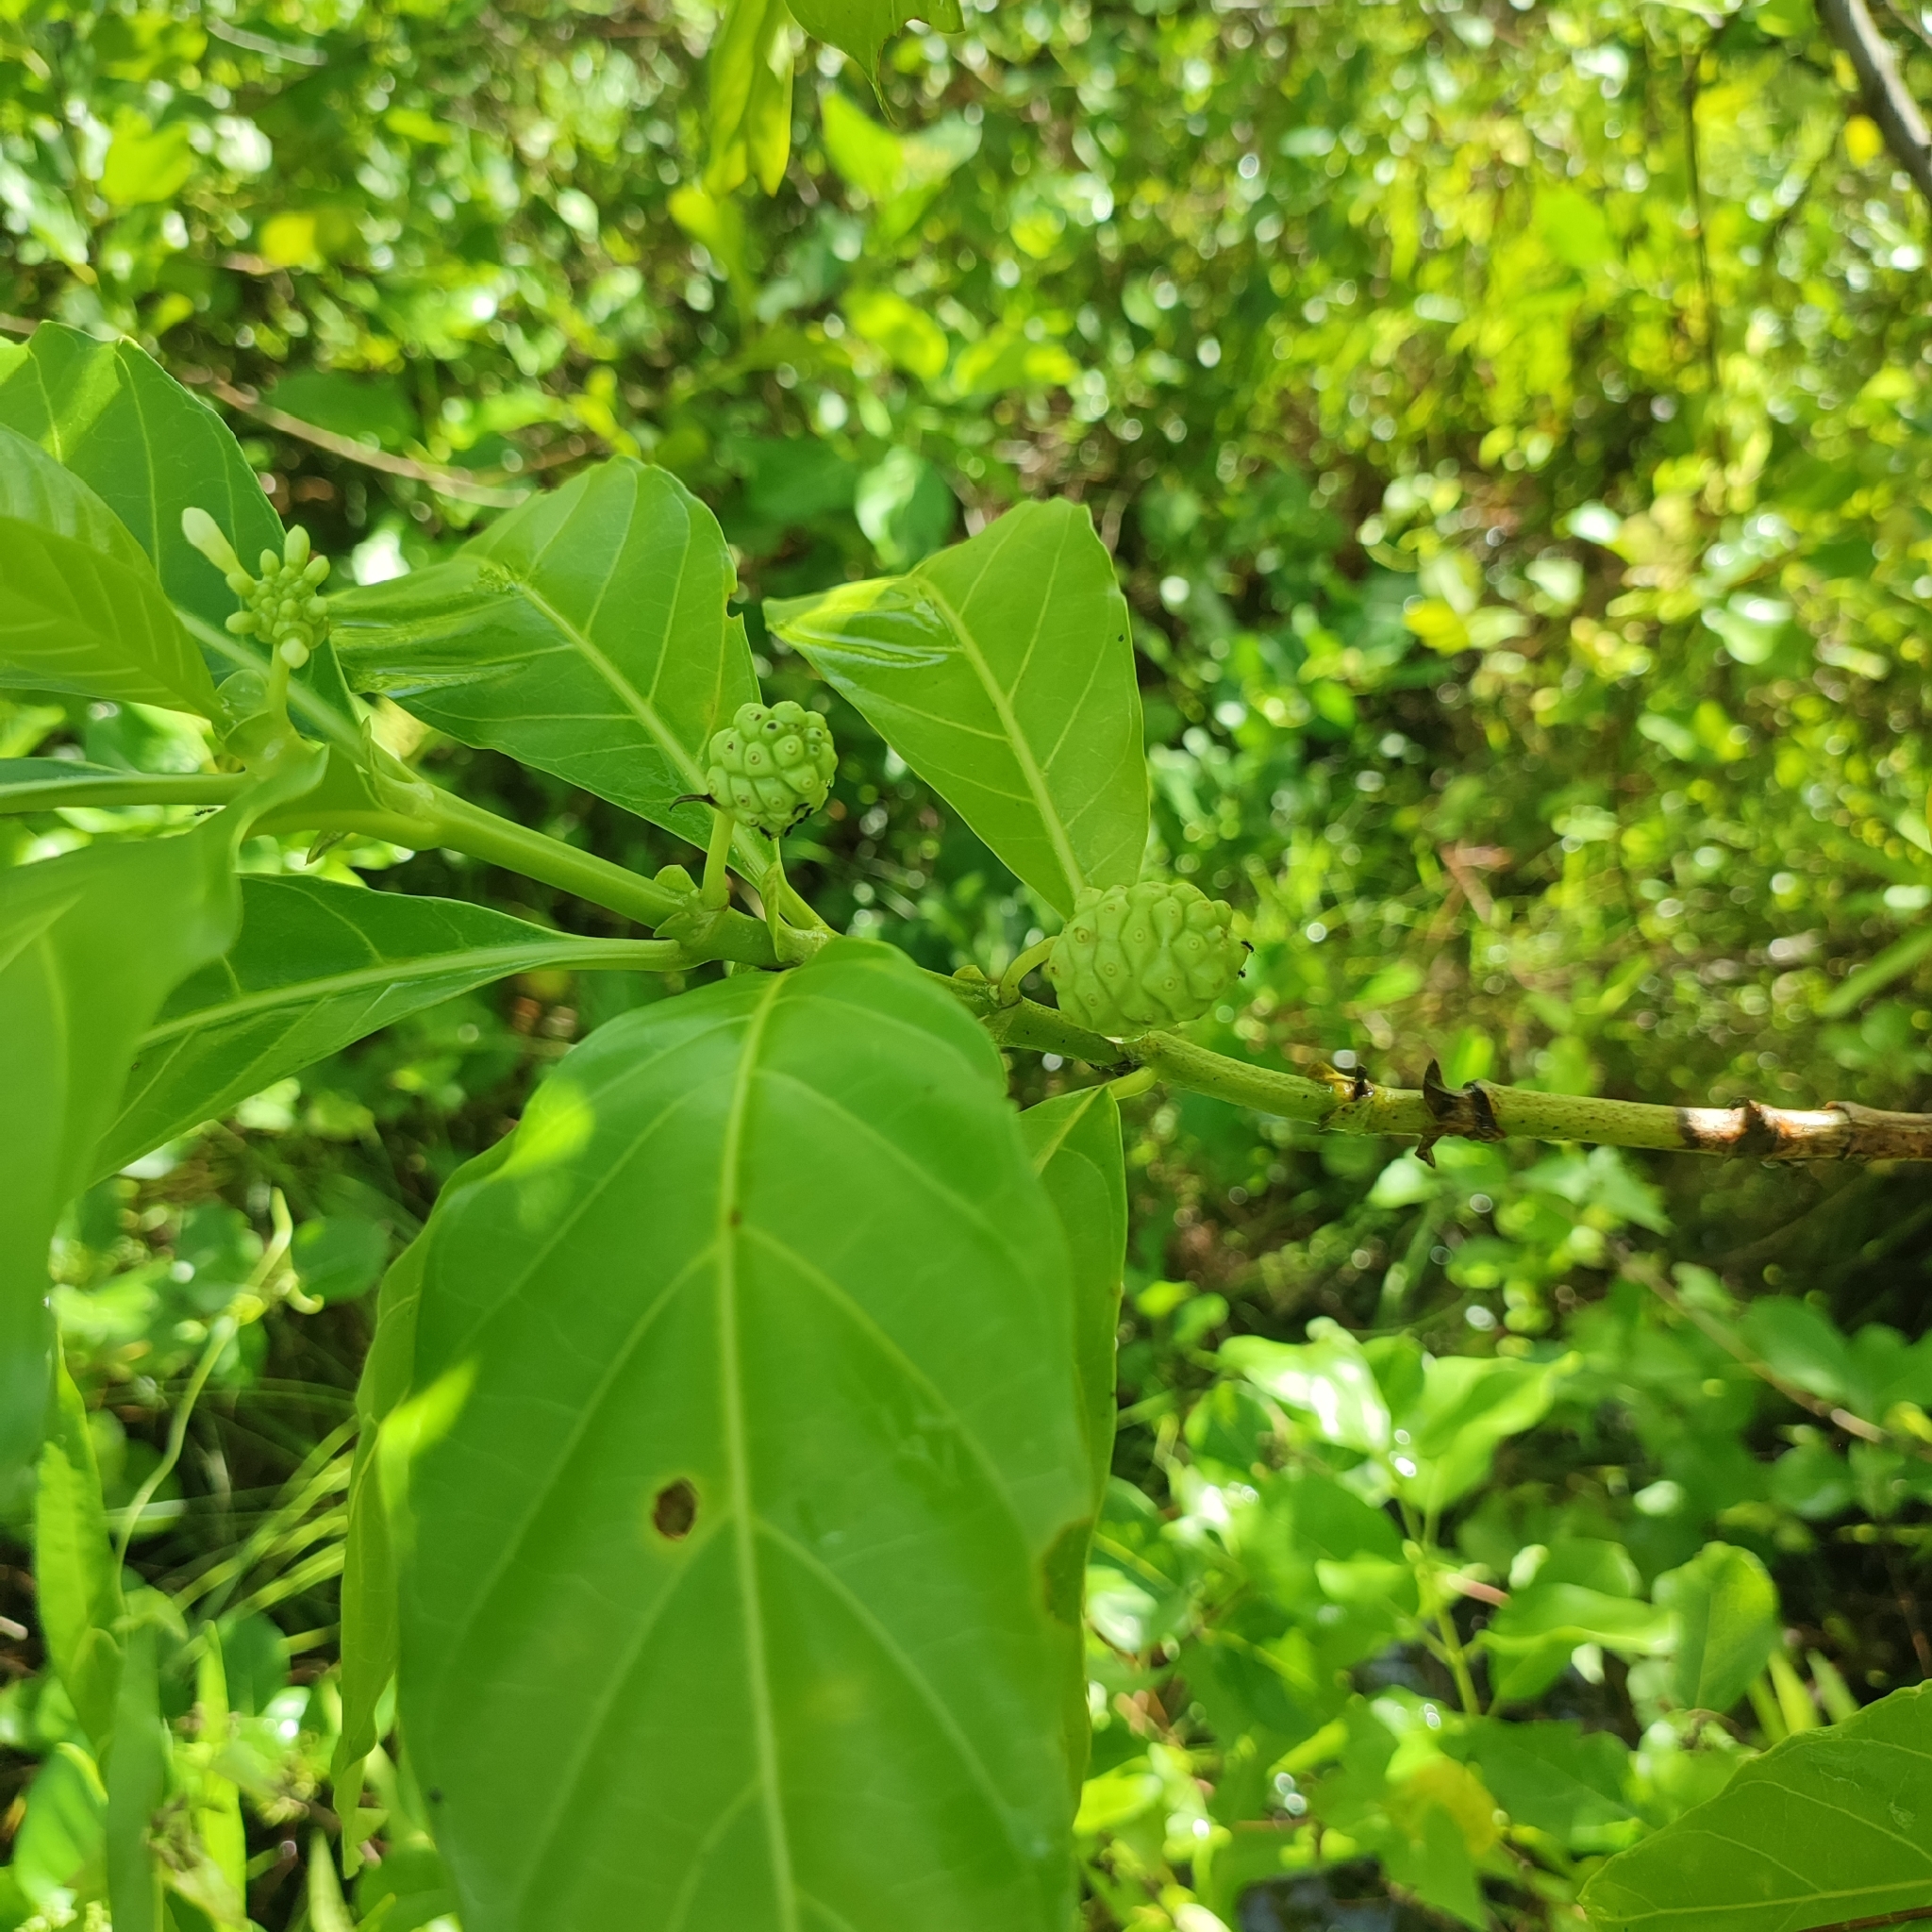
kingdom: Plantae
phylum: Tracheophyta
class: Magnoliopsida
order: Gentianales
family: Rubiaceae
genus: Morinda
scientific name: Morinda citrifolia
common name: Indian-mulberry
